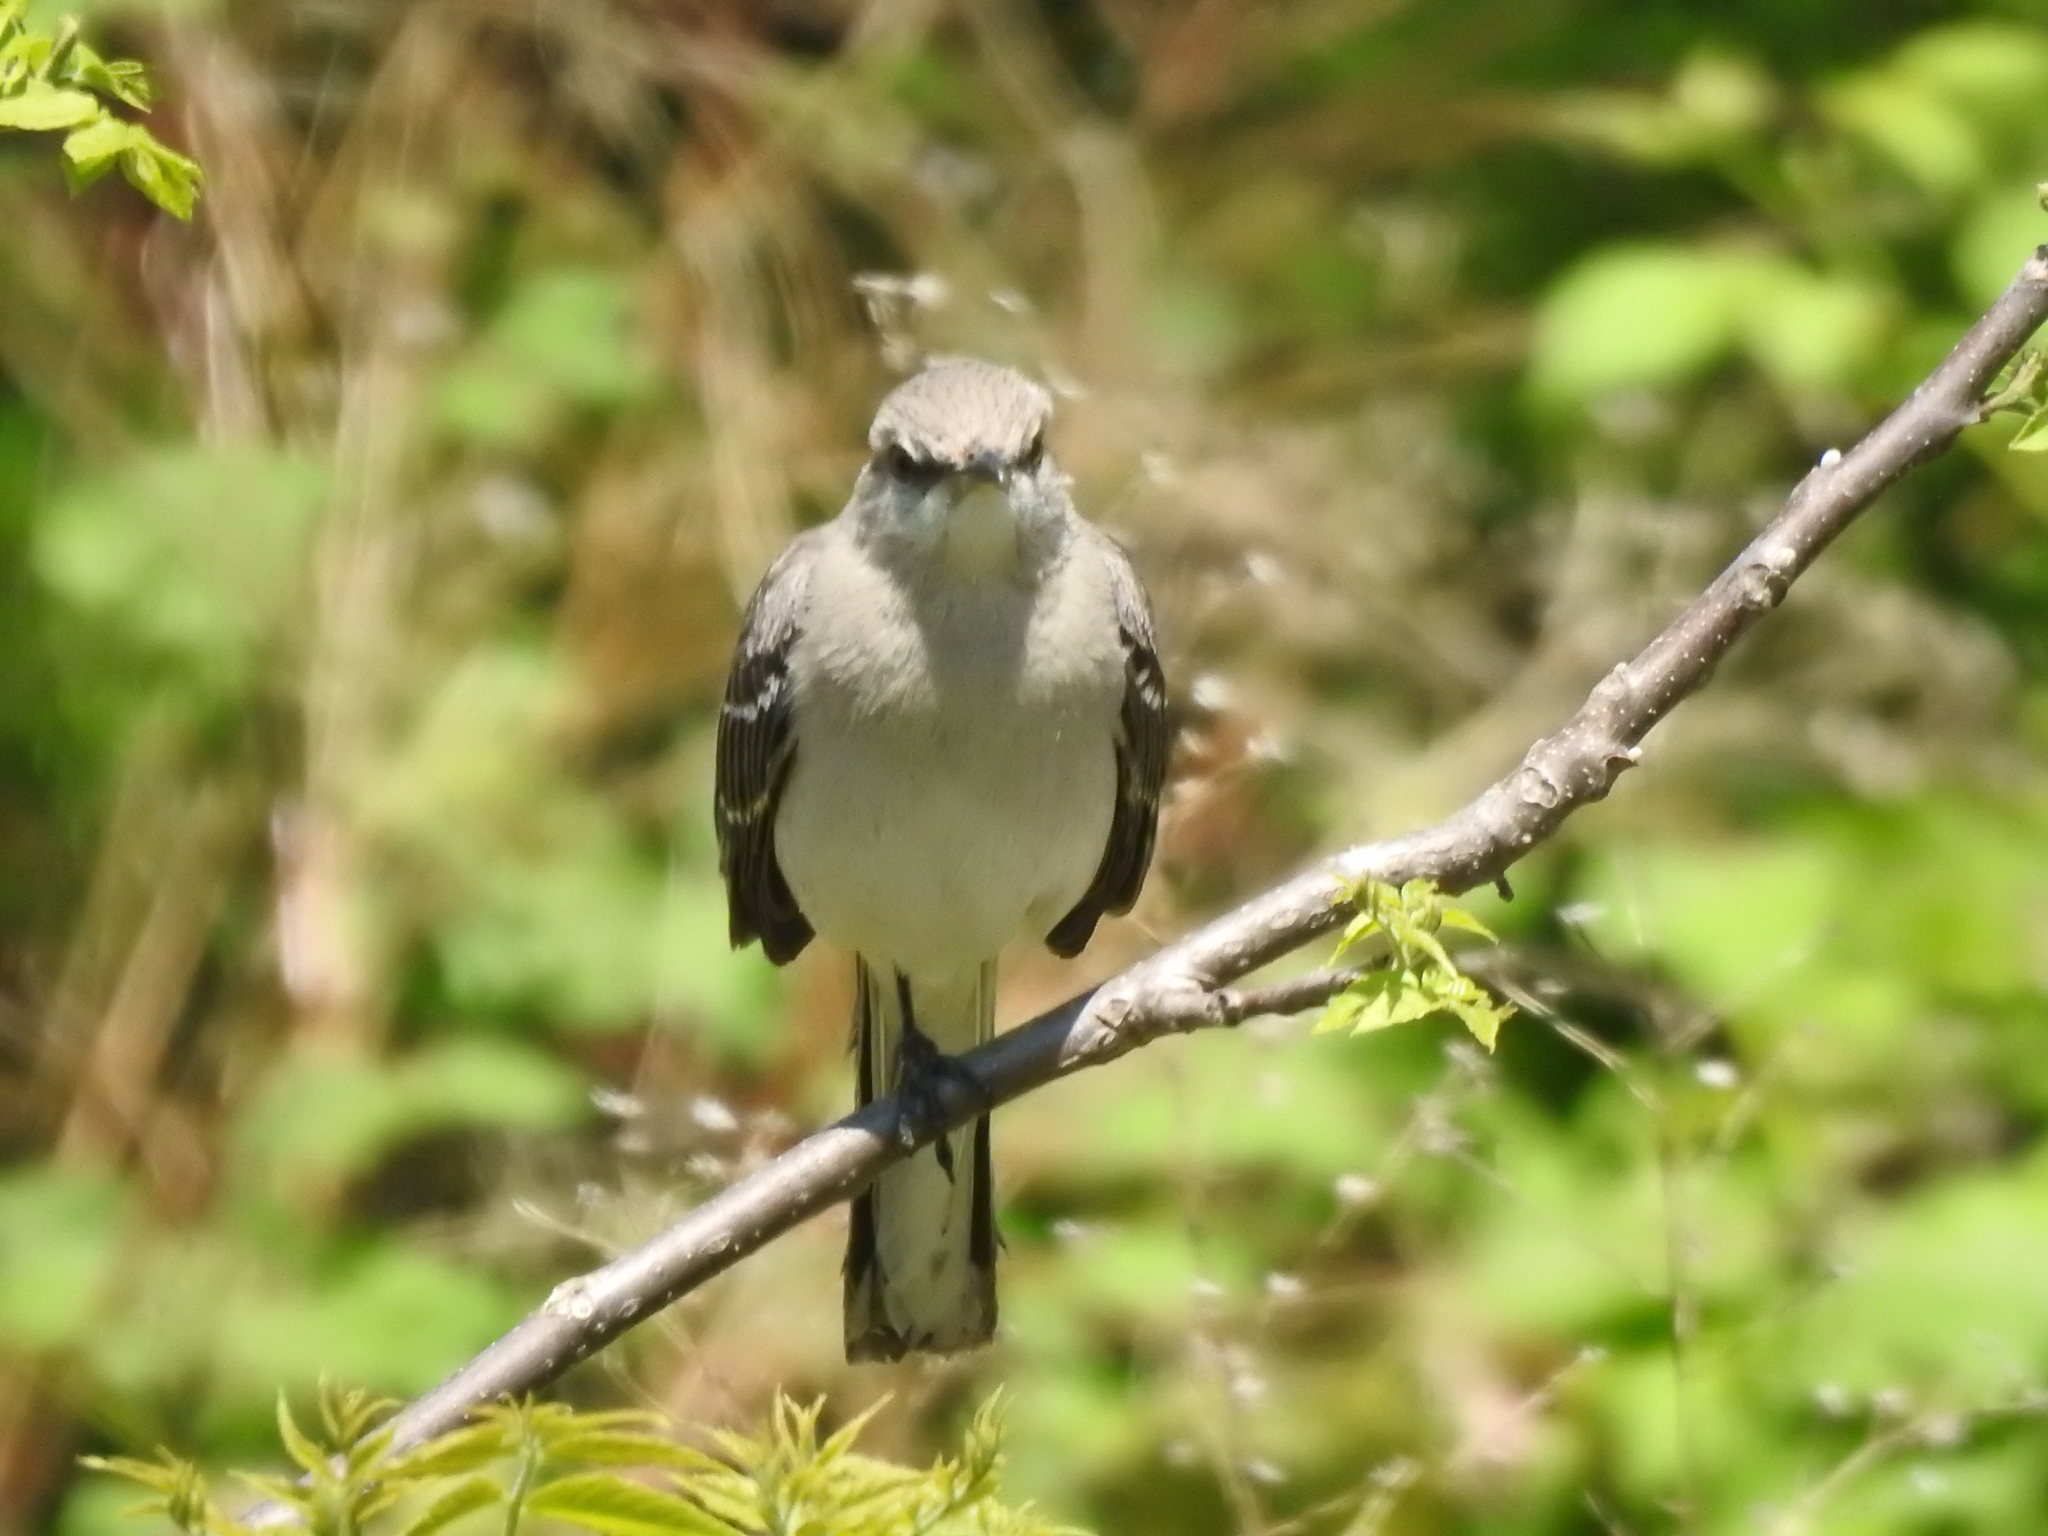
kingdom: Animalia
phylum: Chordata
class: Aves
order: Passeriformes
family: Mimidae
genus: Mimus
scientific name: Mimus polyglottos
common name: Northern mockingbird
